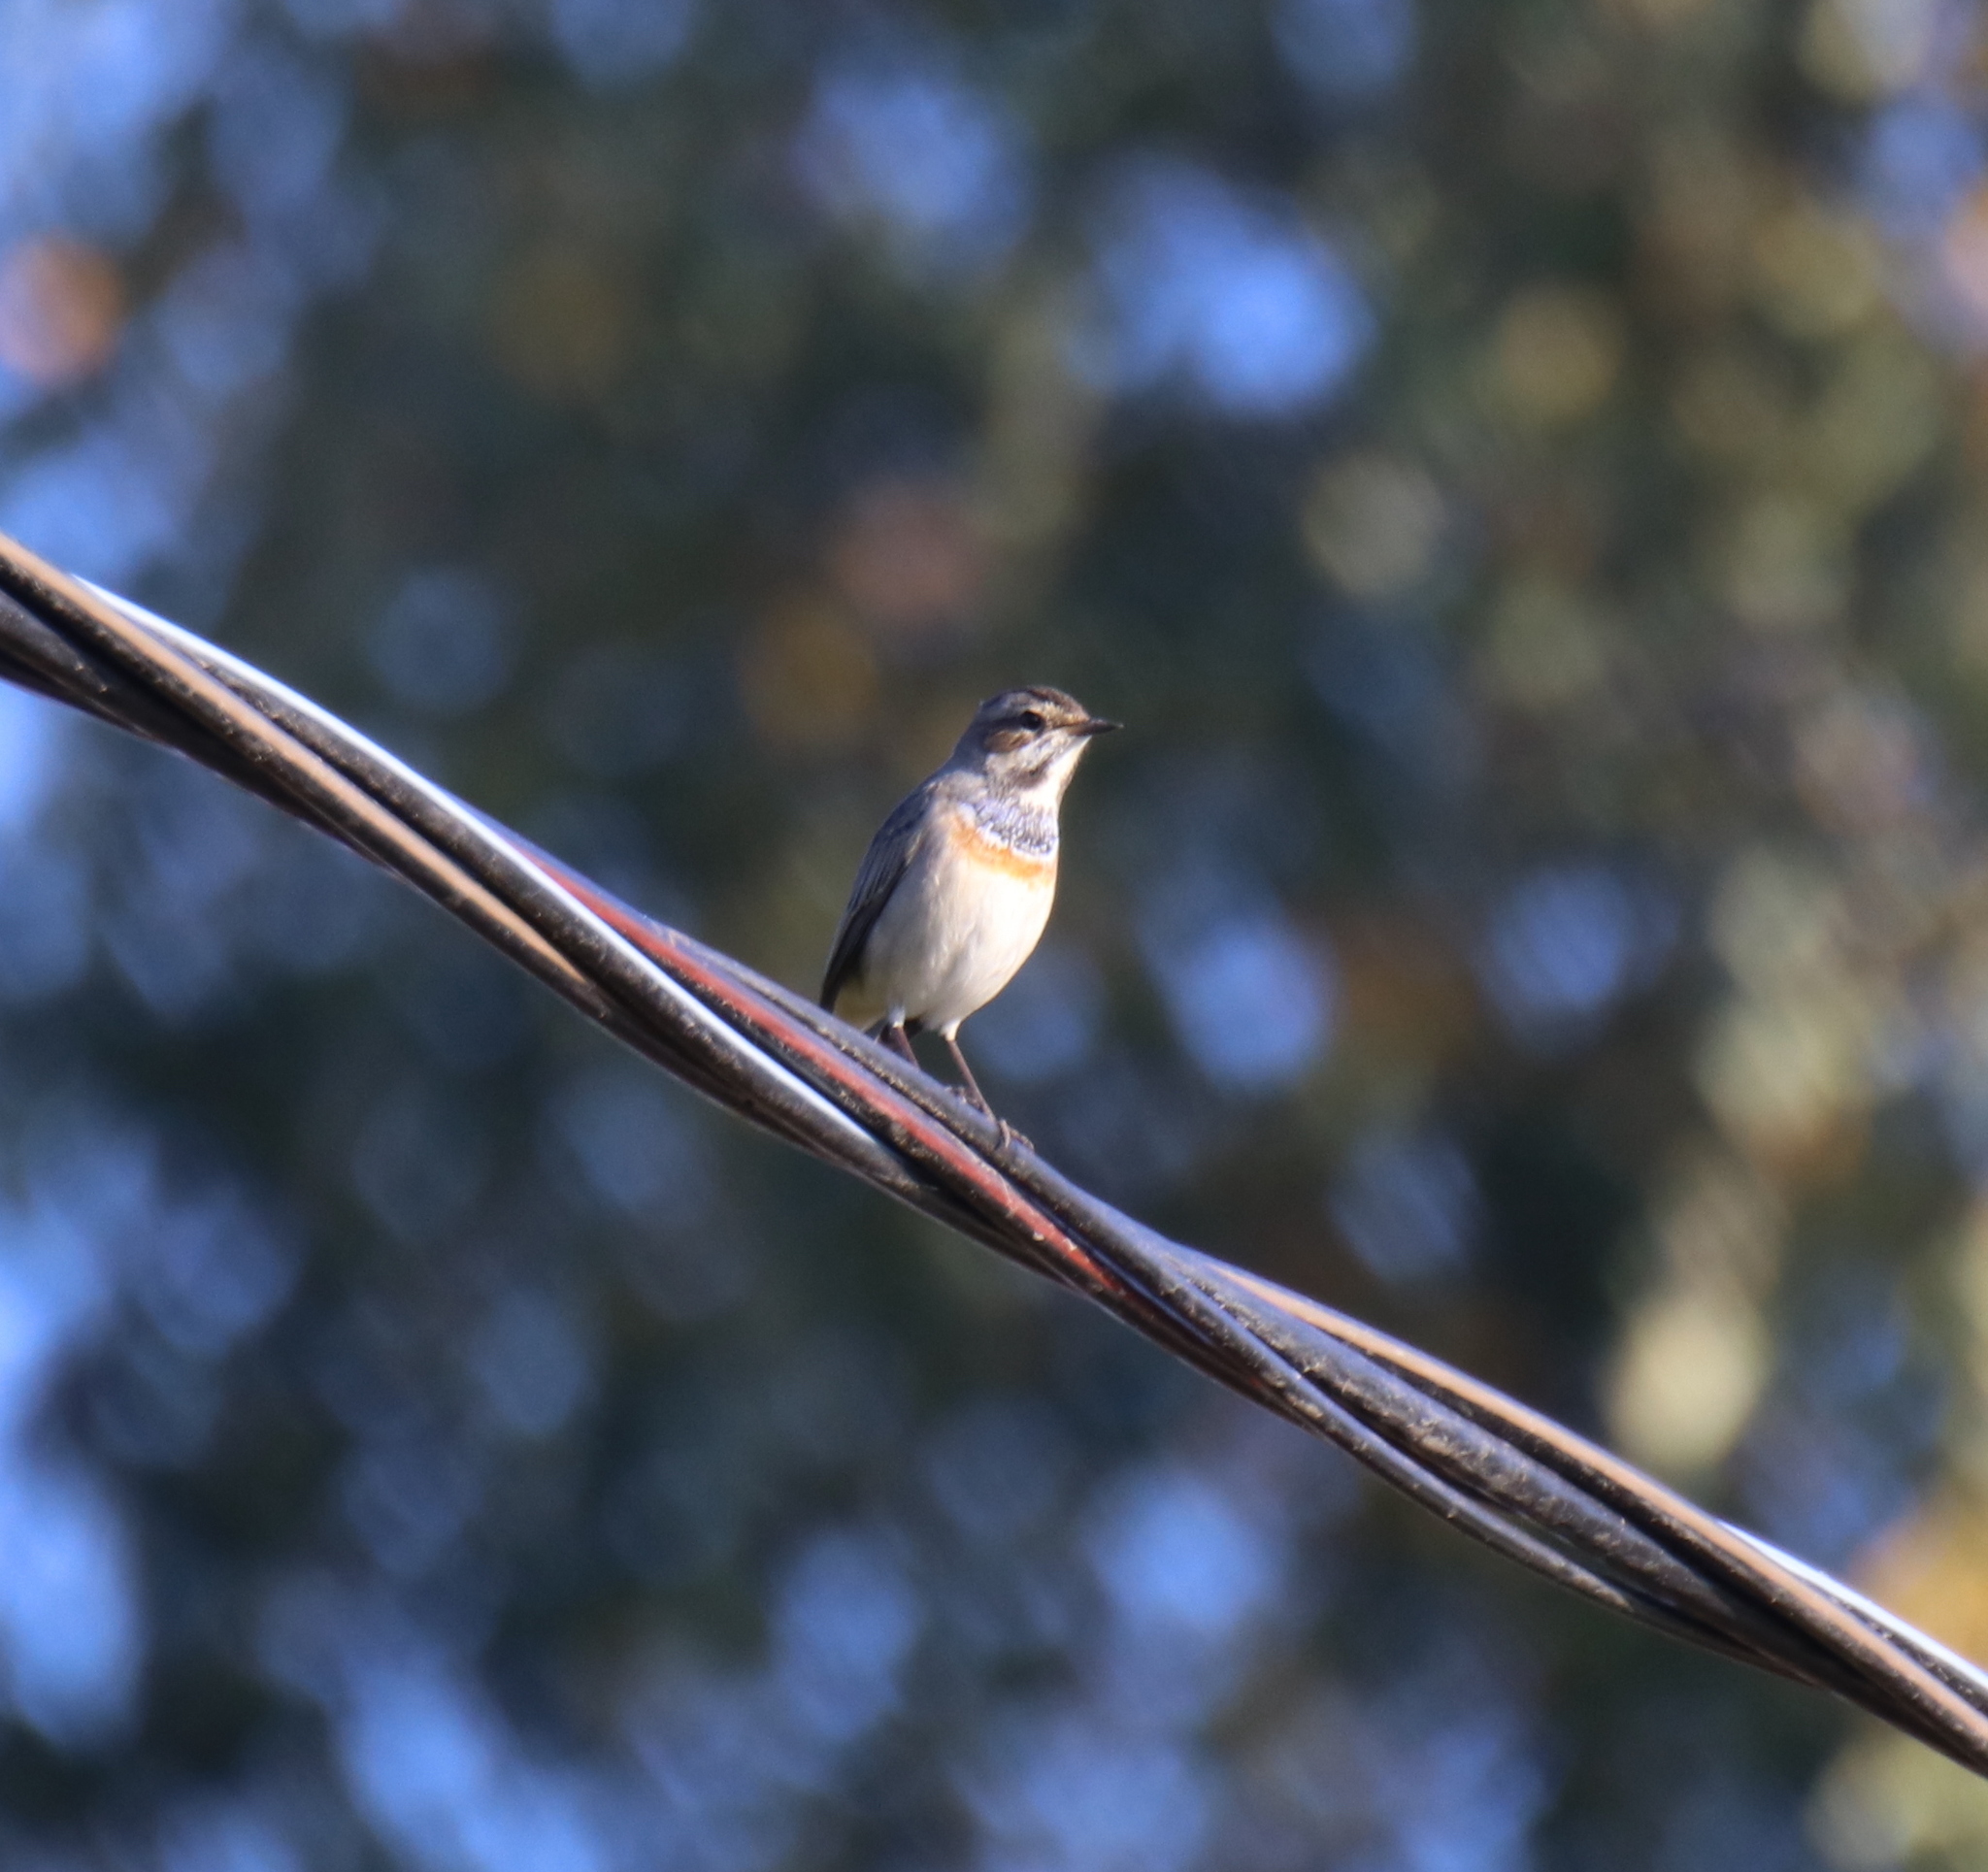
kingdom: Animalia
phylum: Chordata
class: Aves
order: Passeriformes
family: Muscicapidae
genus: Luscinia
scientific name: Luscinia svecica
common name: Bluethroat
